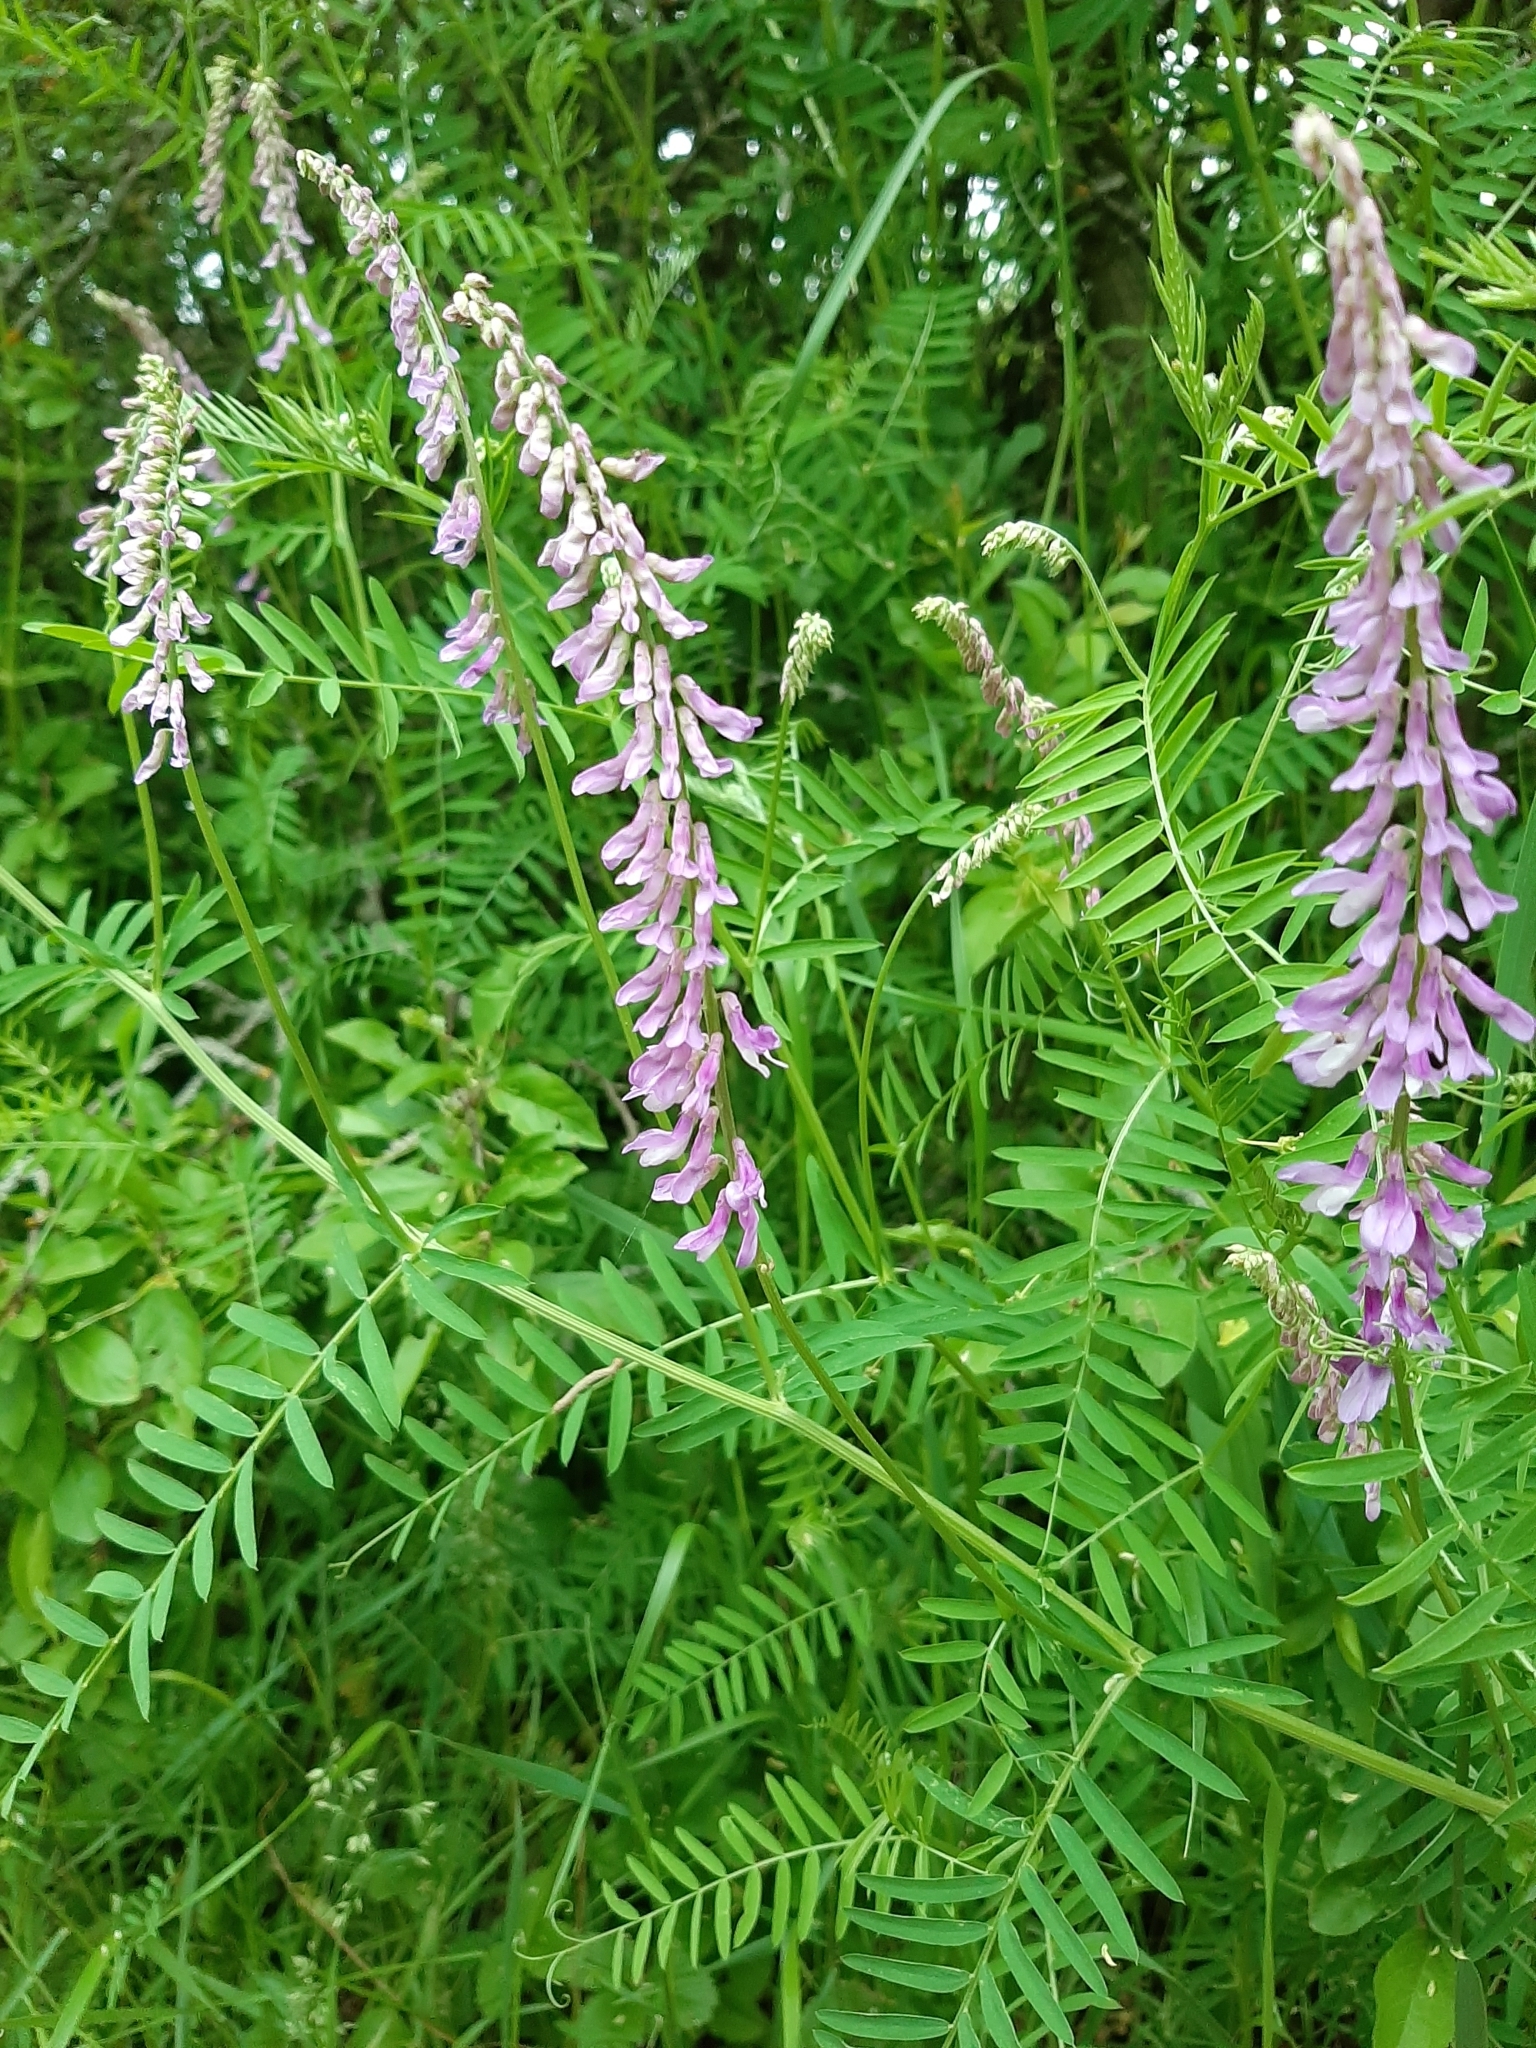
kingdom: Plantae
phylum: Tracheophyta
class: Magnoliopsida
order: Fabales
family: Fabaceae
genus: Vicia
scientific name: Vicia tenuifolia
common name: Fine-leaved vetch
